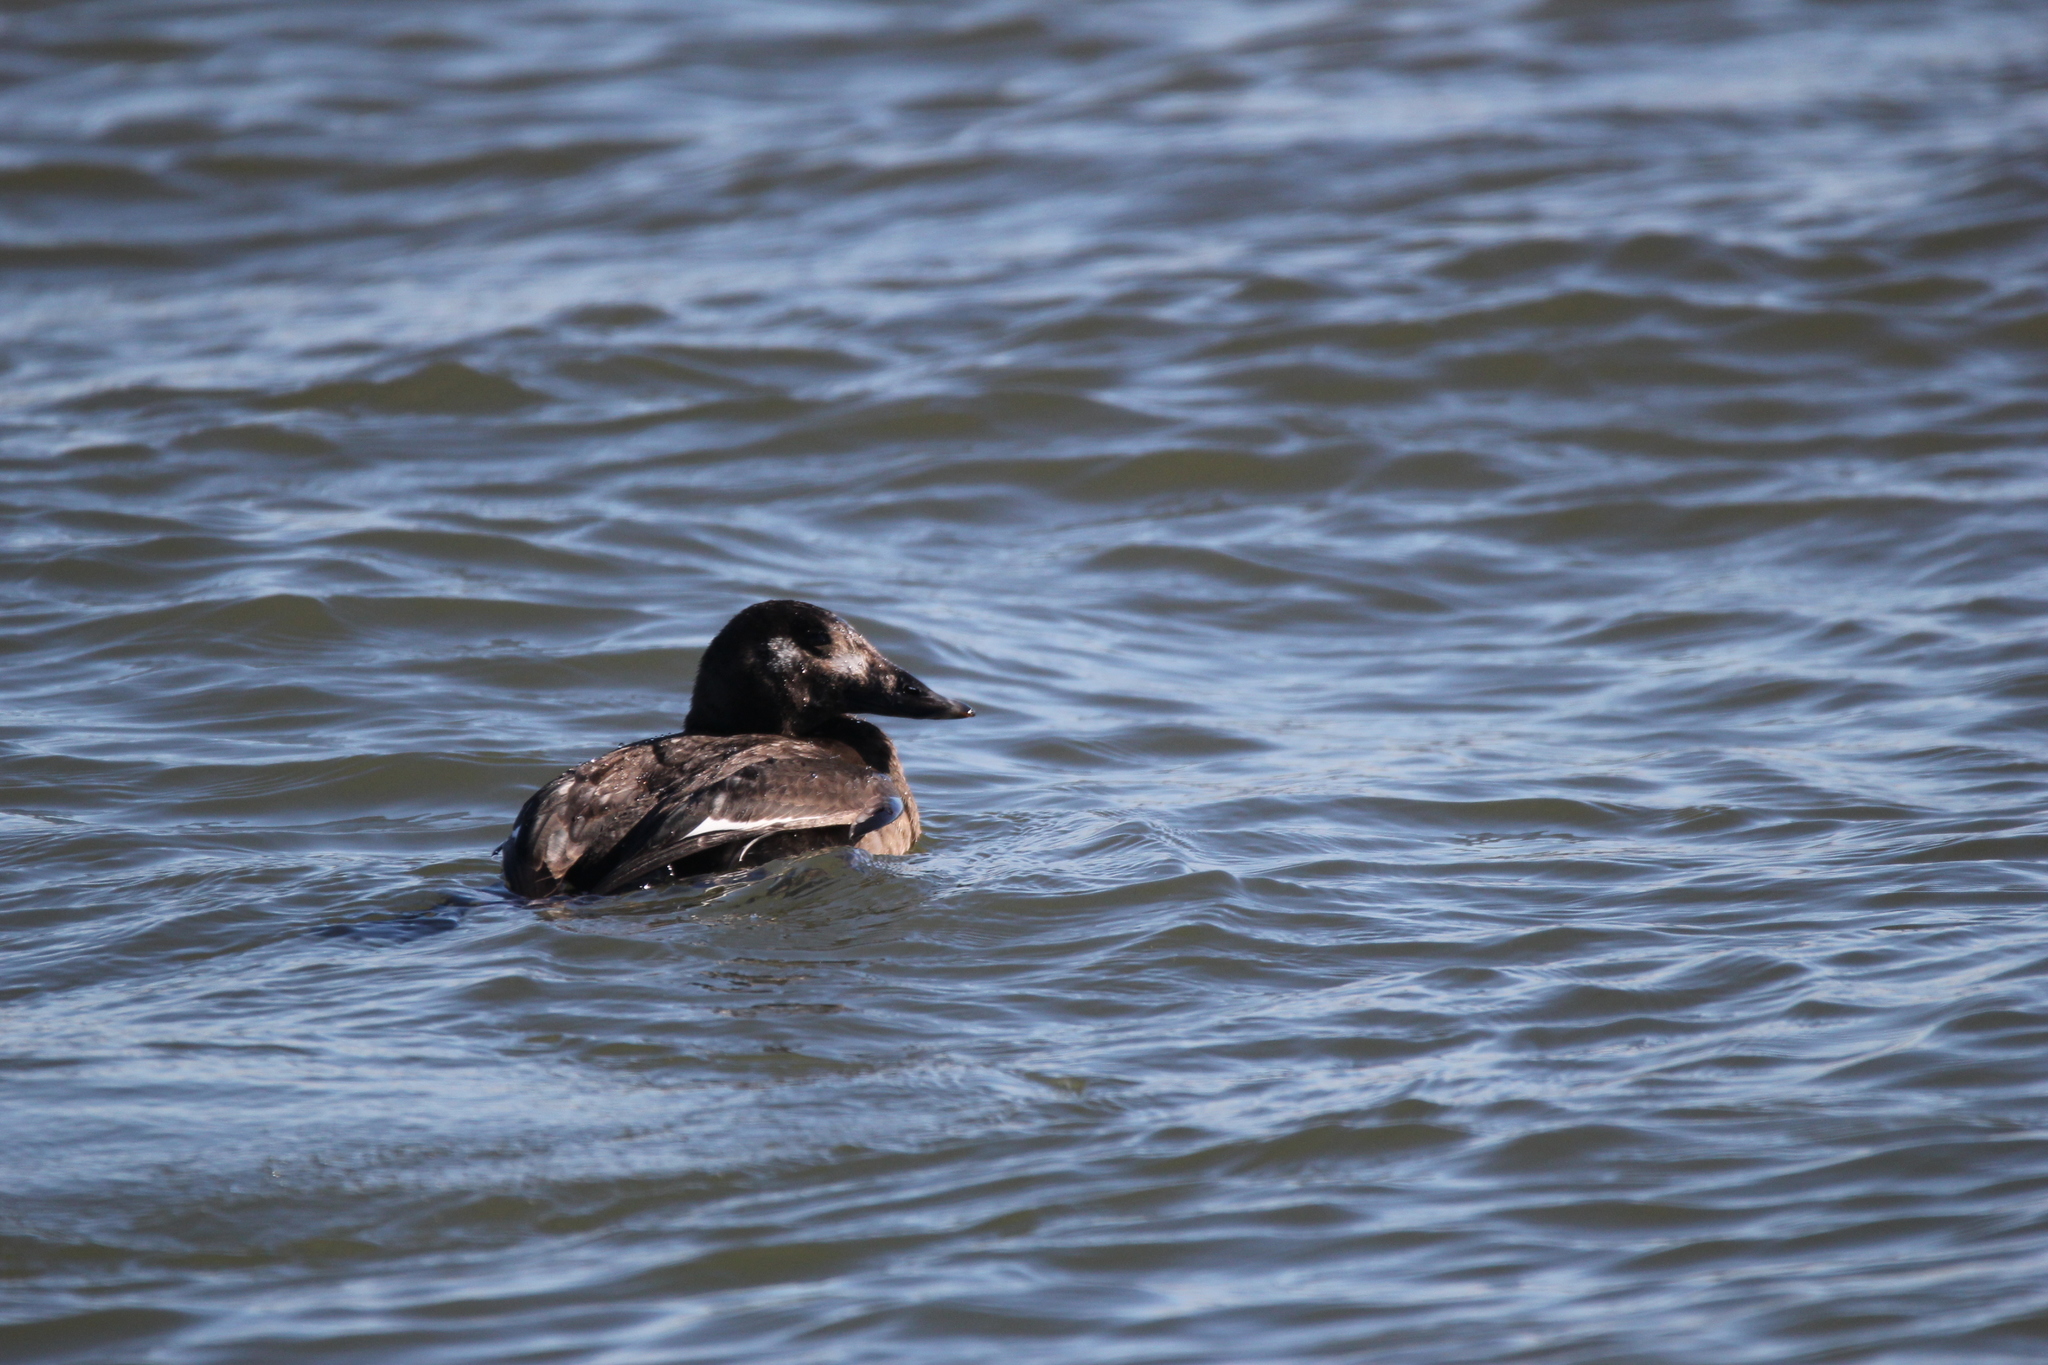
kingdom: Animalia
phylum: Chordata
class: Aves
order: Anseriformes
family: Anatidae
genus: Melanitta
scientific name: Melanitta deglandi
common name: White-winged scoter
